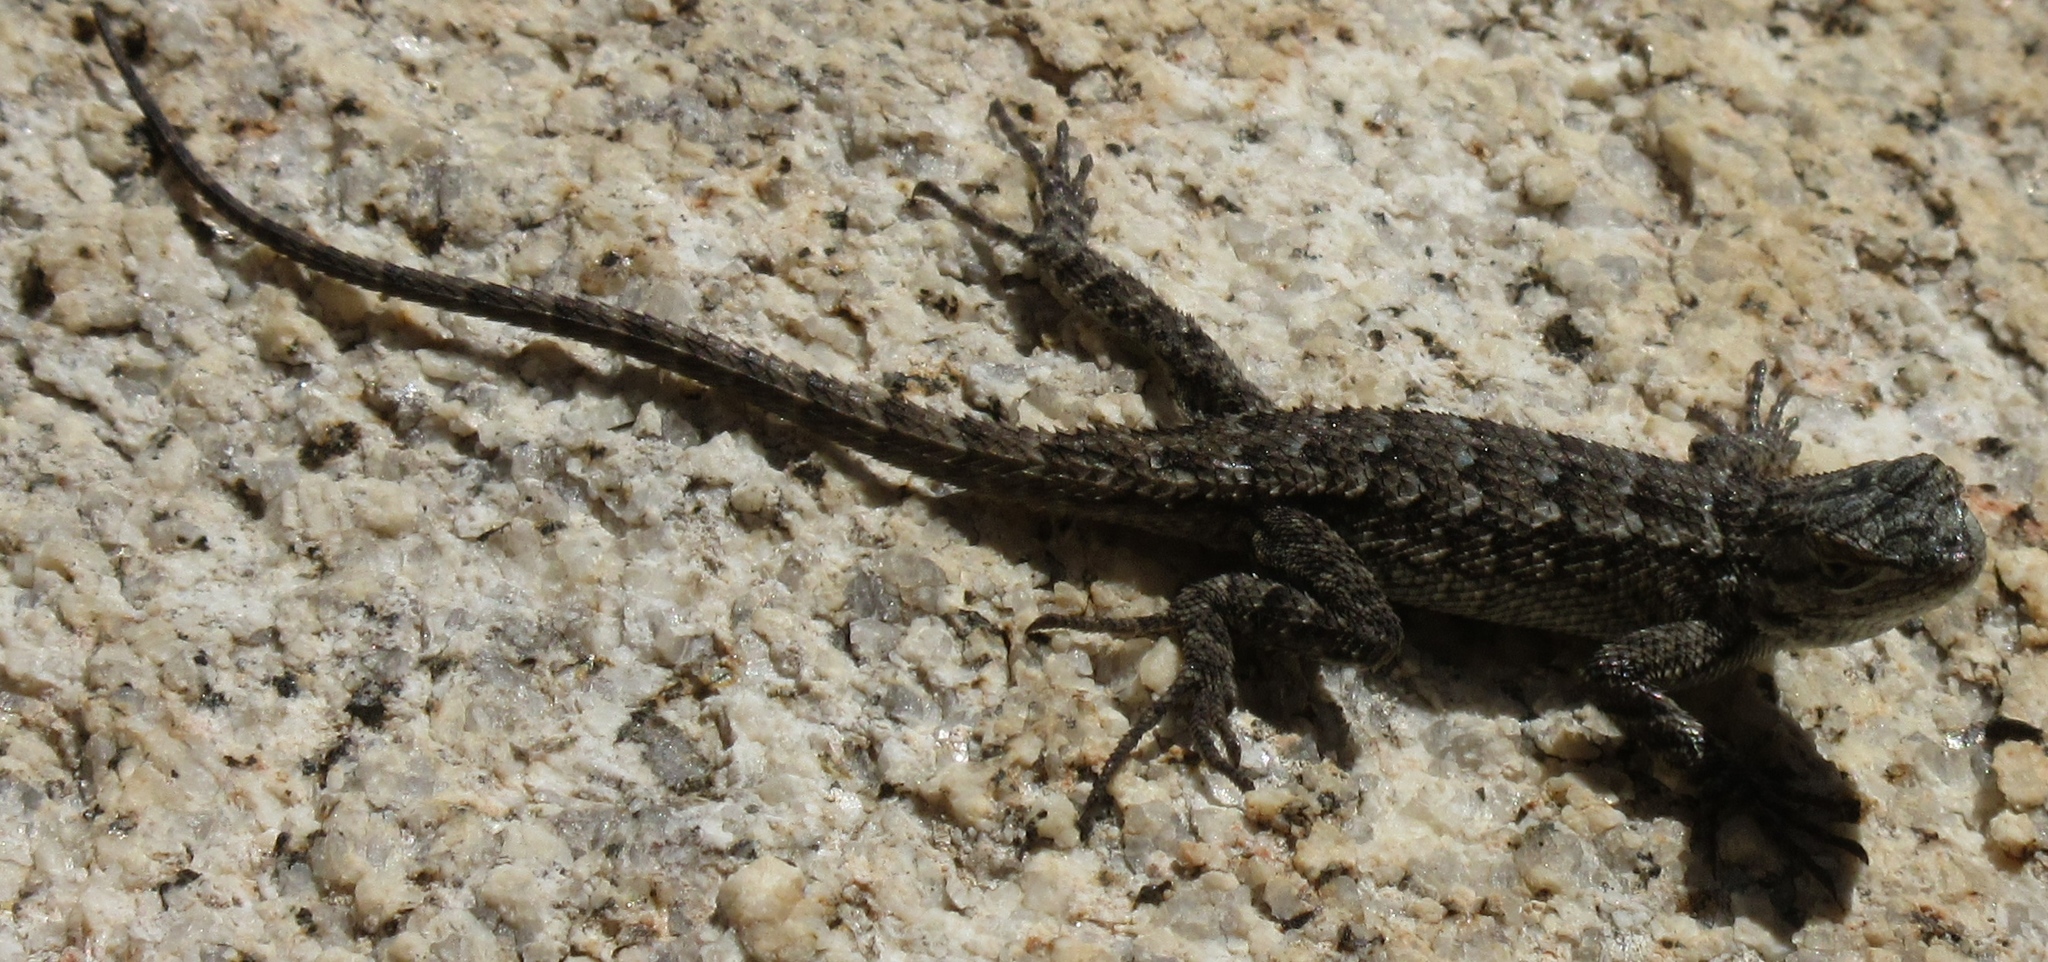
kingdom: Animalia
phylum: Chordata
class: Squamata
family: Phrynosomatidae
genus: Sceloporus
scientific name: Sceloporus occidentalis
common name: Western fence lizard
